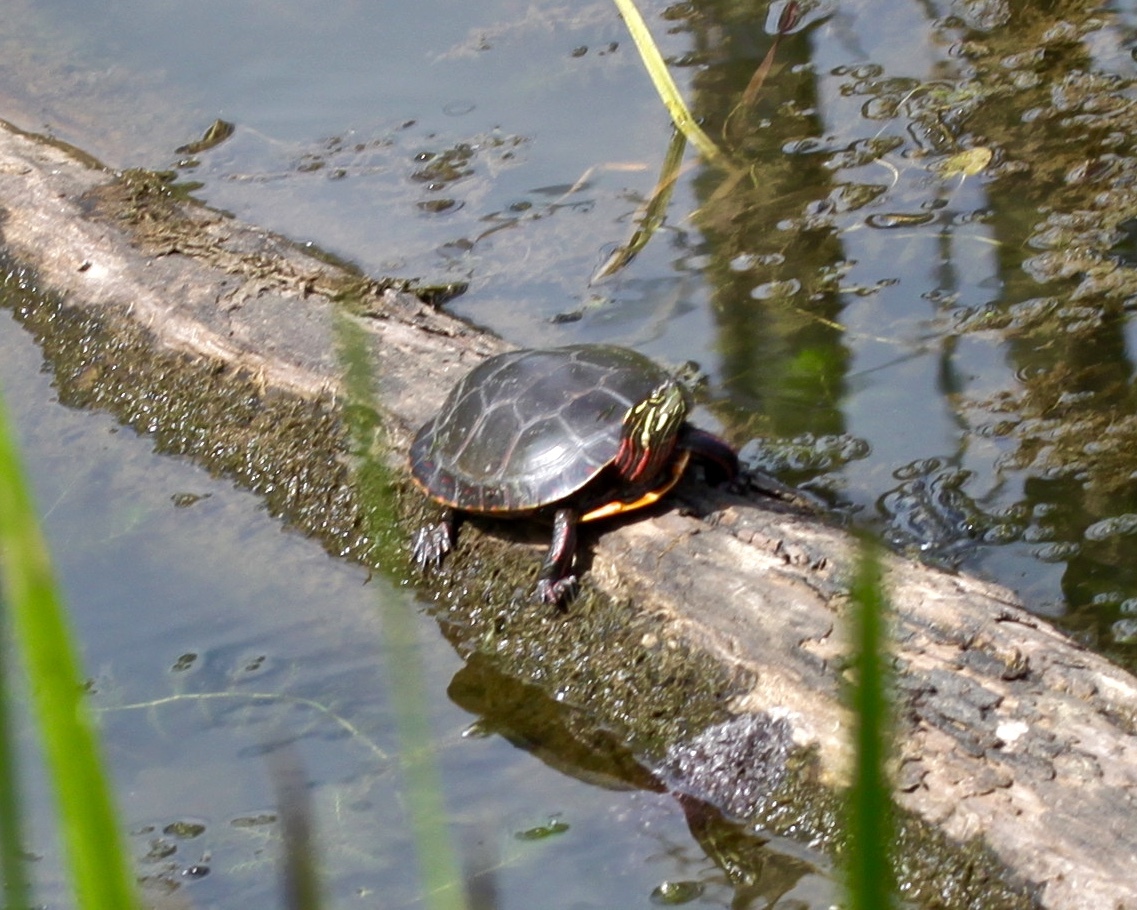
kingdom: Animalia
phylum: Chordata
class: Testudines
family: Emydidae
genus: Chrysemys
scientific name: Chrysemys picta
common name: Painted turtle
